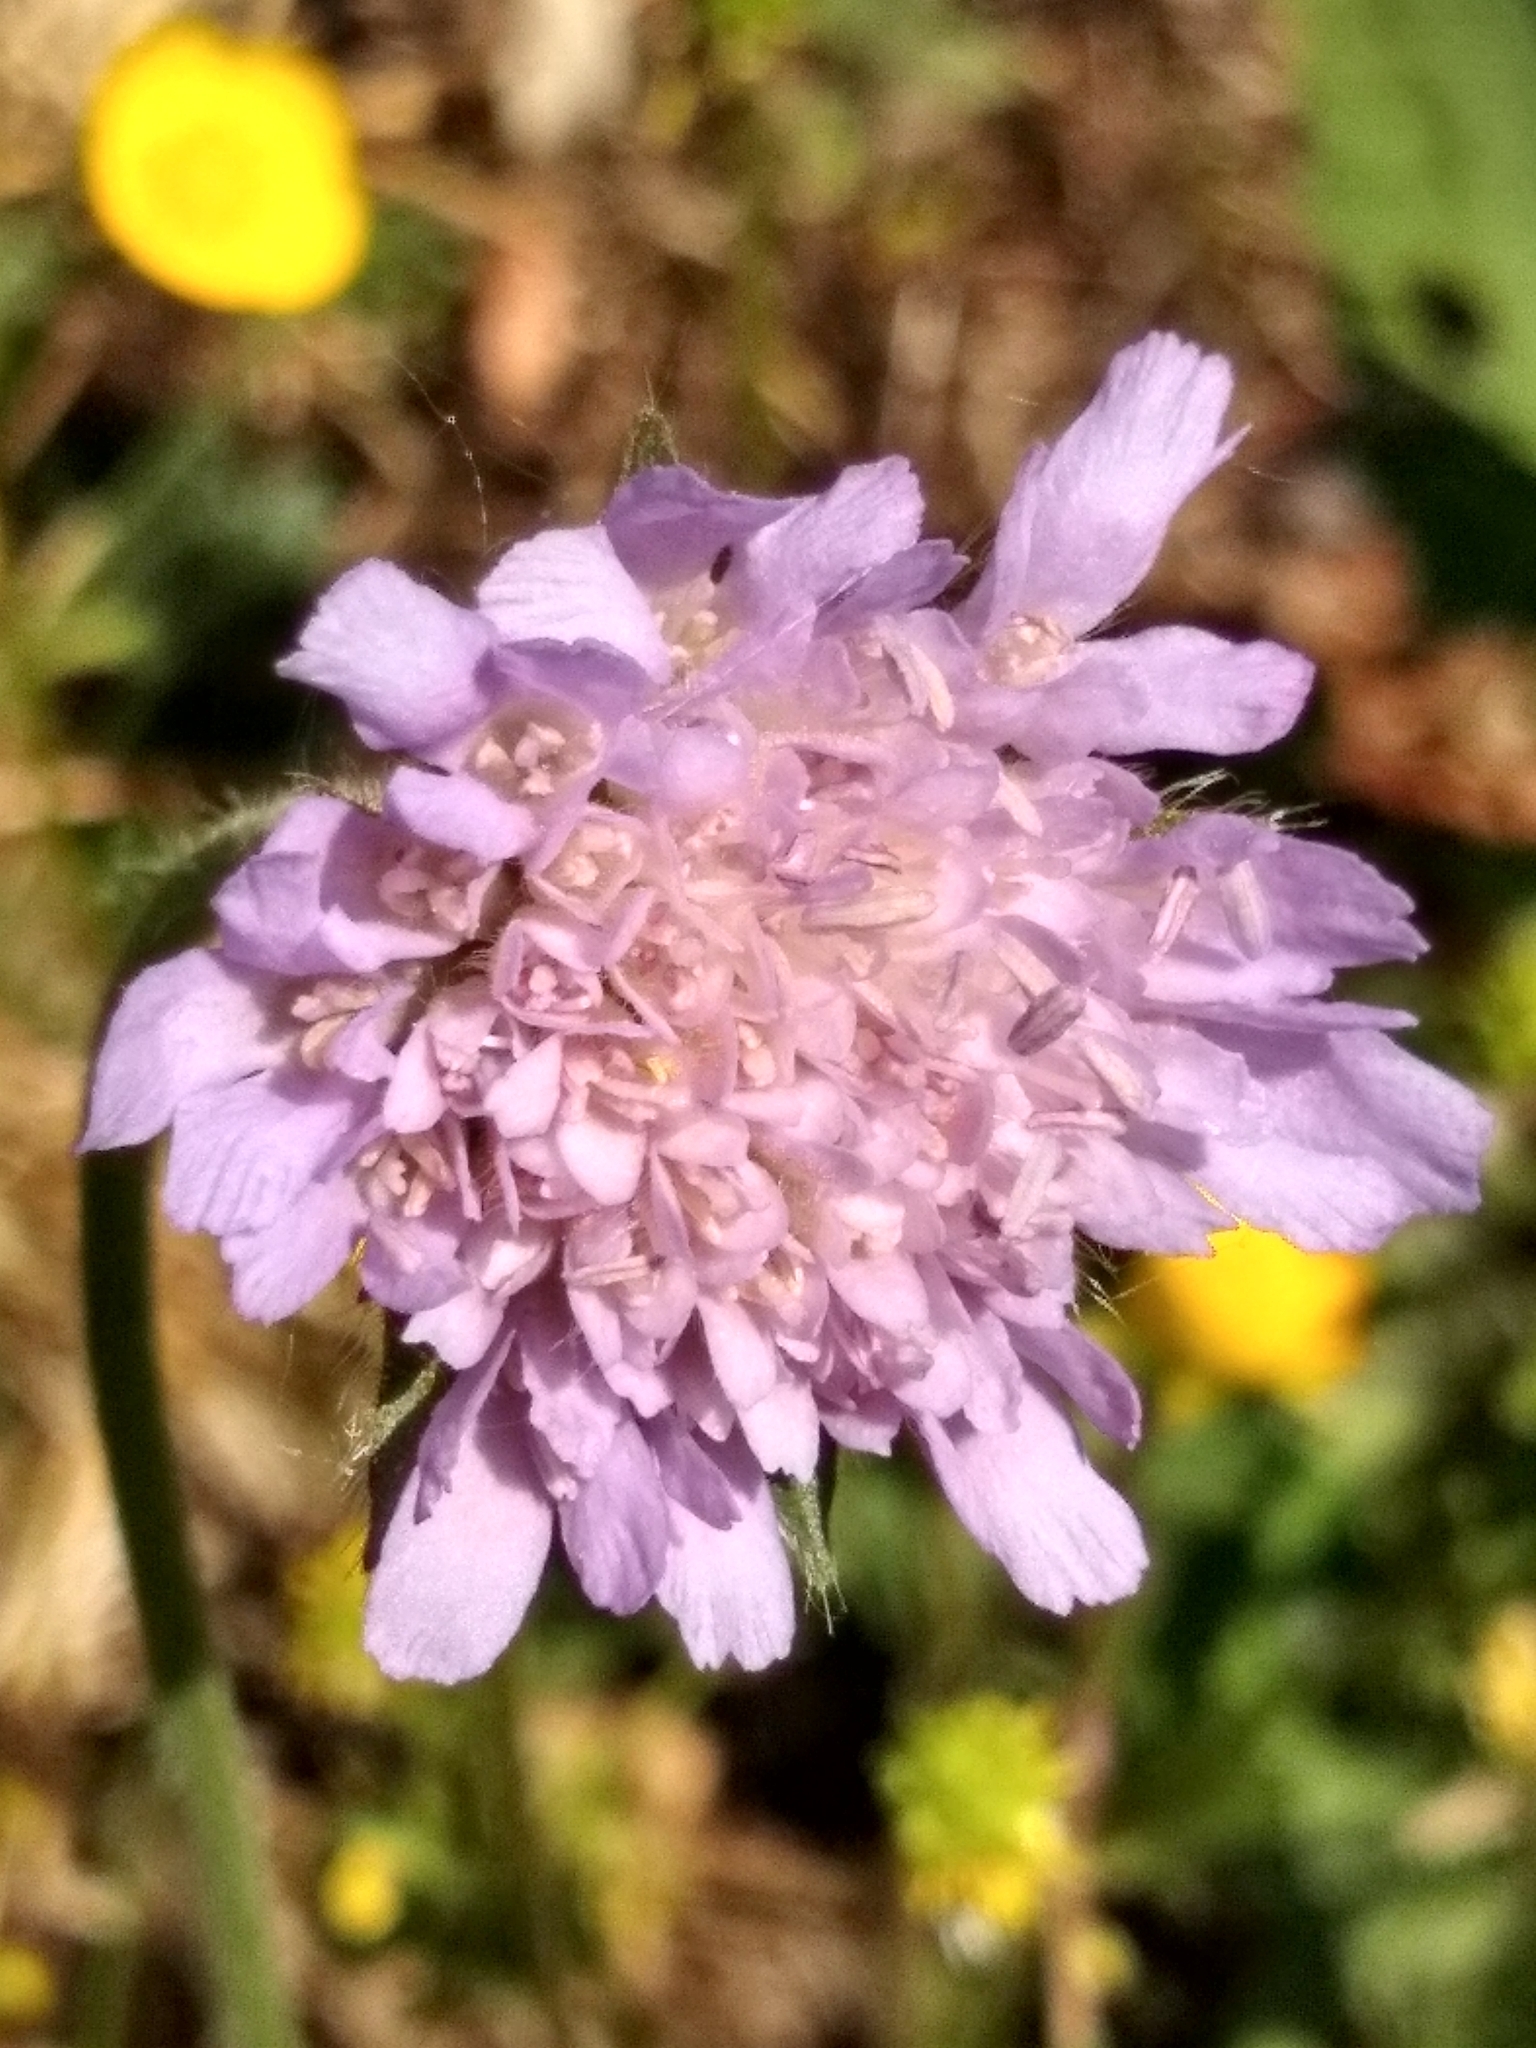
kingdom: Plantae
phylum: Tracheophyta
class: Magnoliopsida
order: Dipsacales
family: Caprifoliaceae
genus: Knautia
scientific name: Knautia arvensis
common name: Field scabiosa
